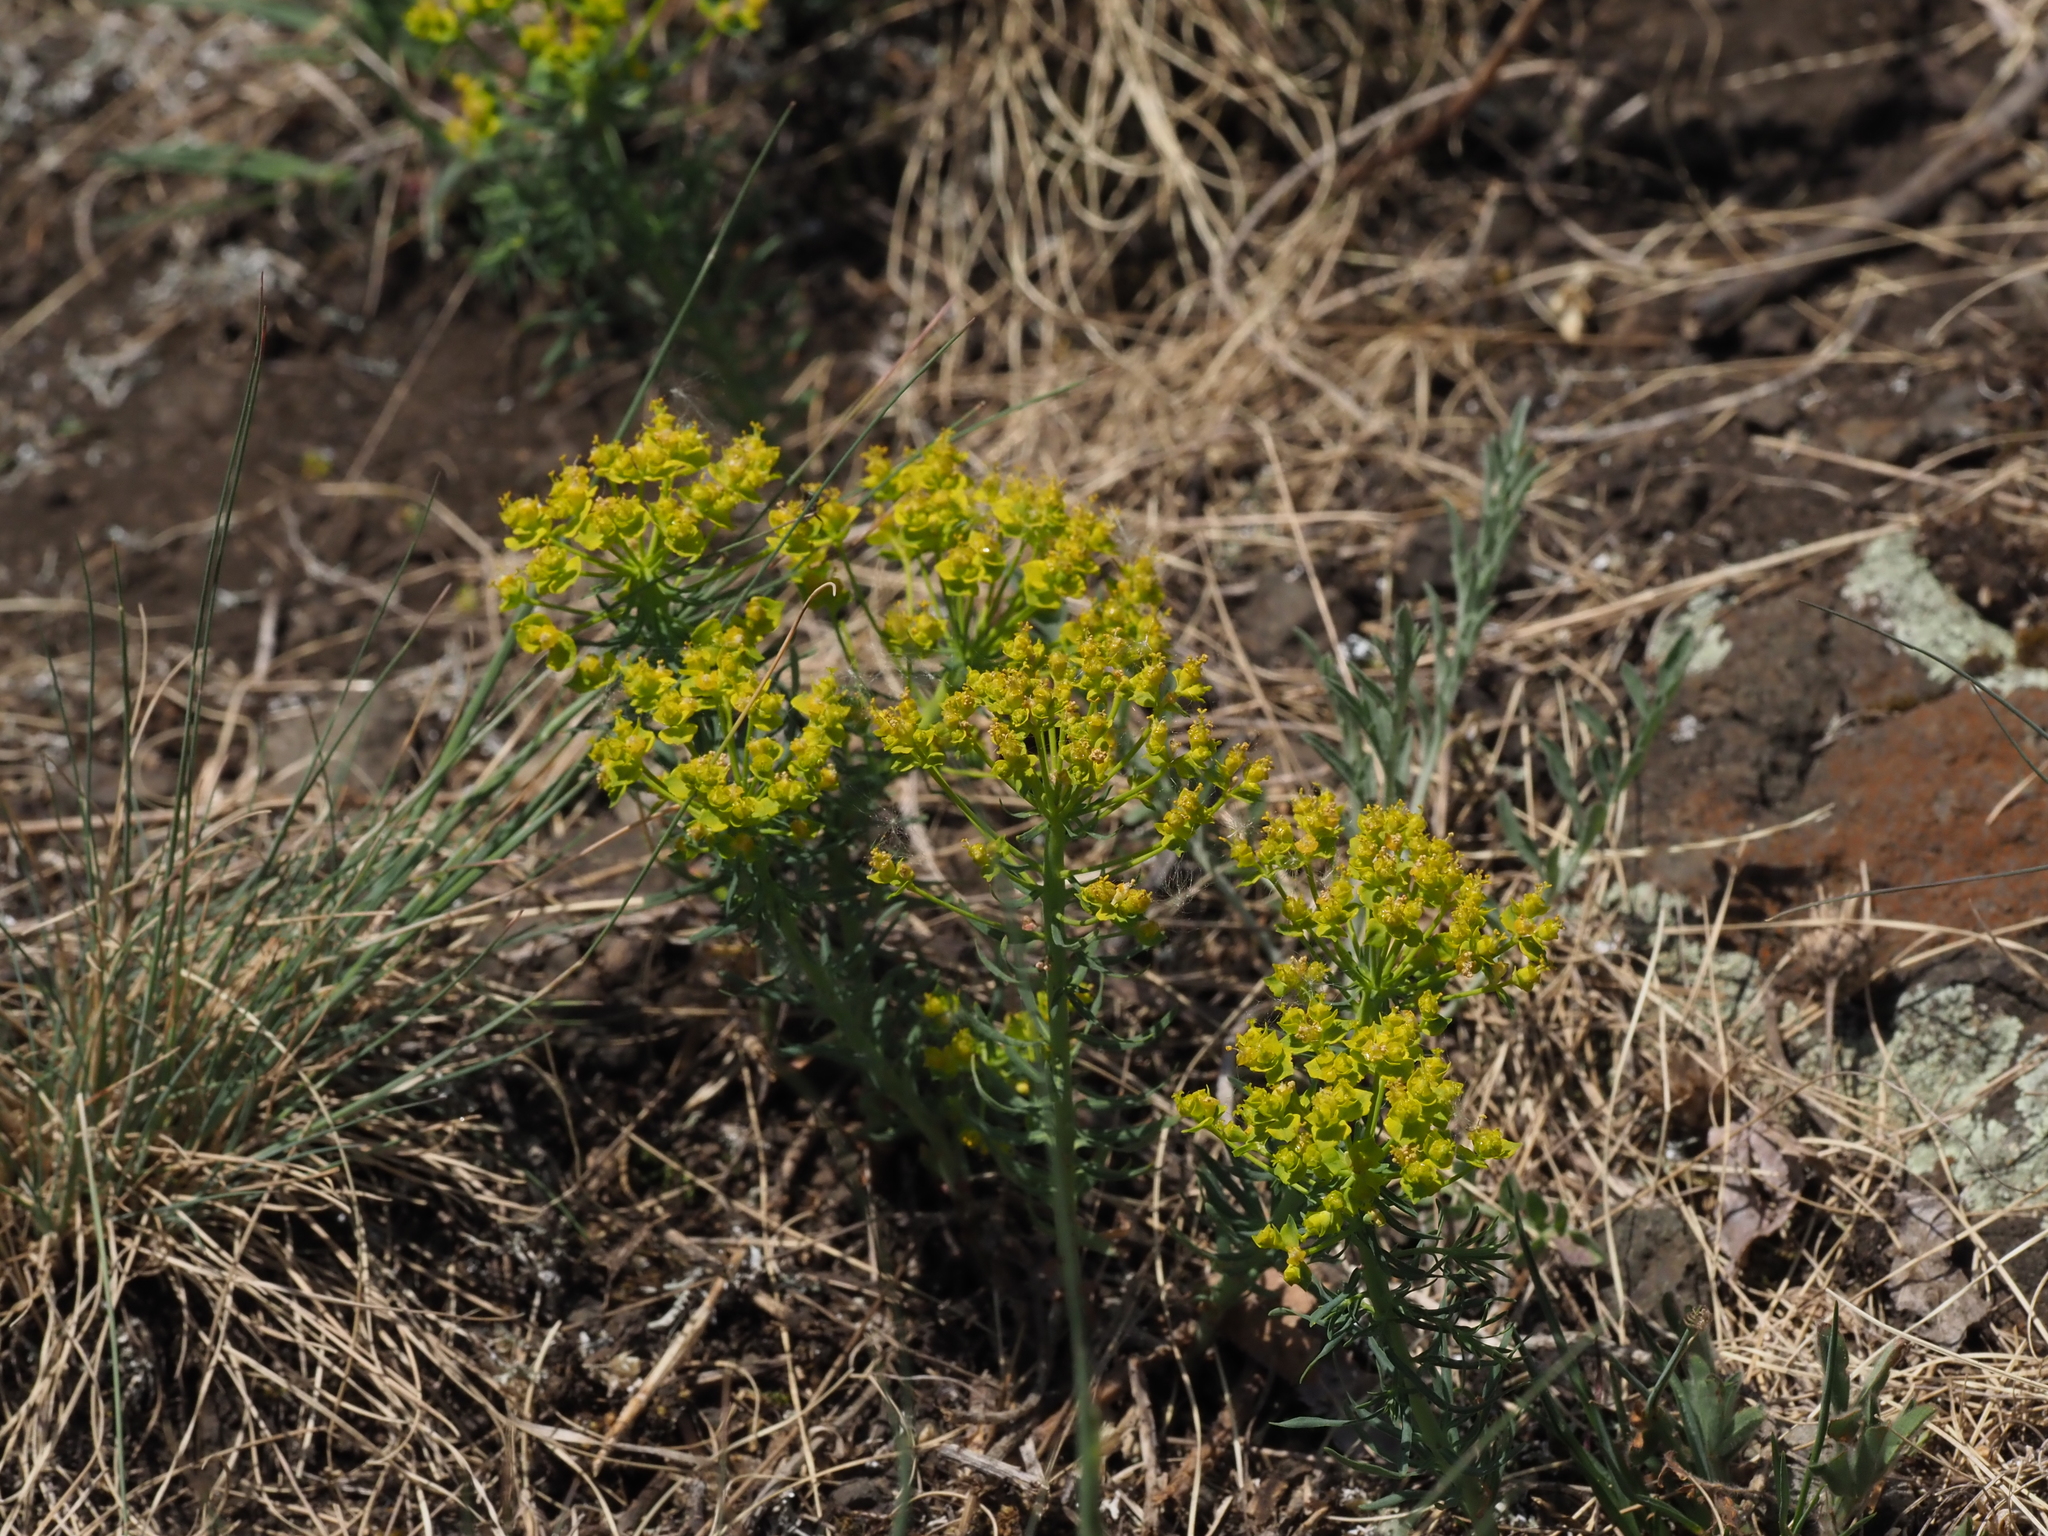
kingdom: Plantae
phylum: Tracheophyta
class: Magnoliopsida
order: Malpighiales
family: Euphorbiaceae
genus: Euphorbia
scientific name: Euphorbia cyparissias
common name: Cypress spurge
